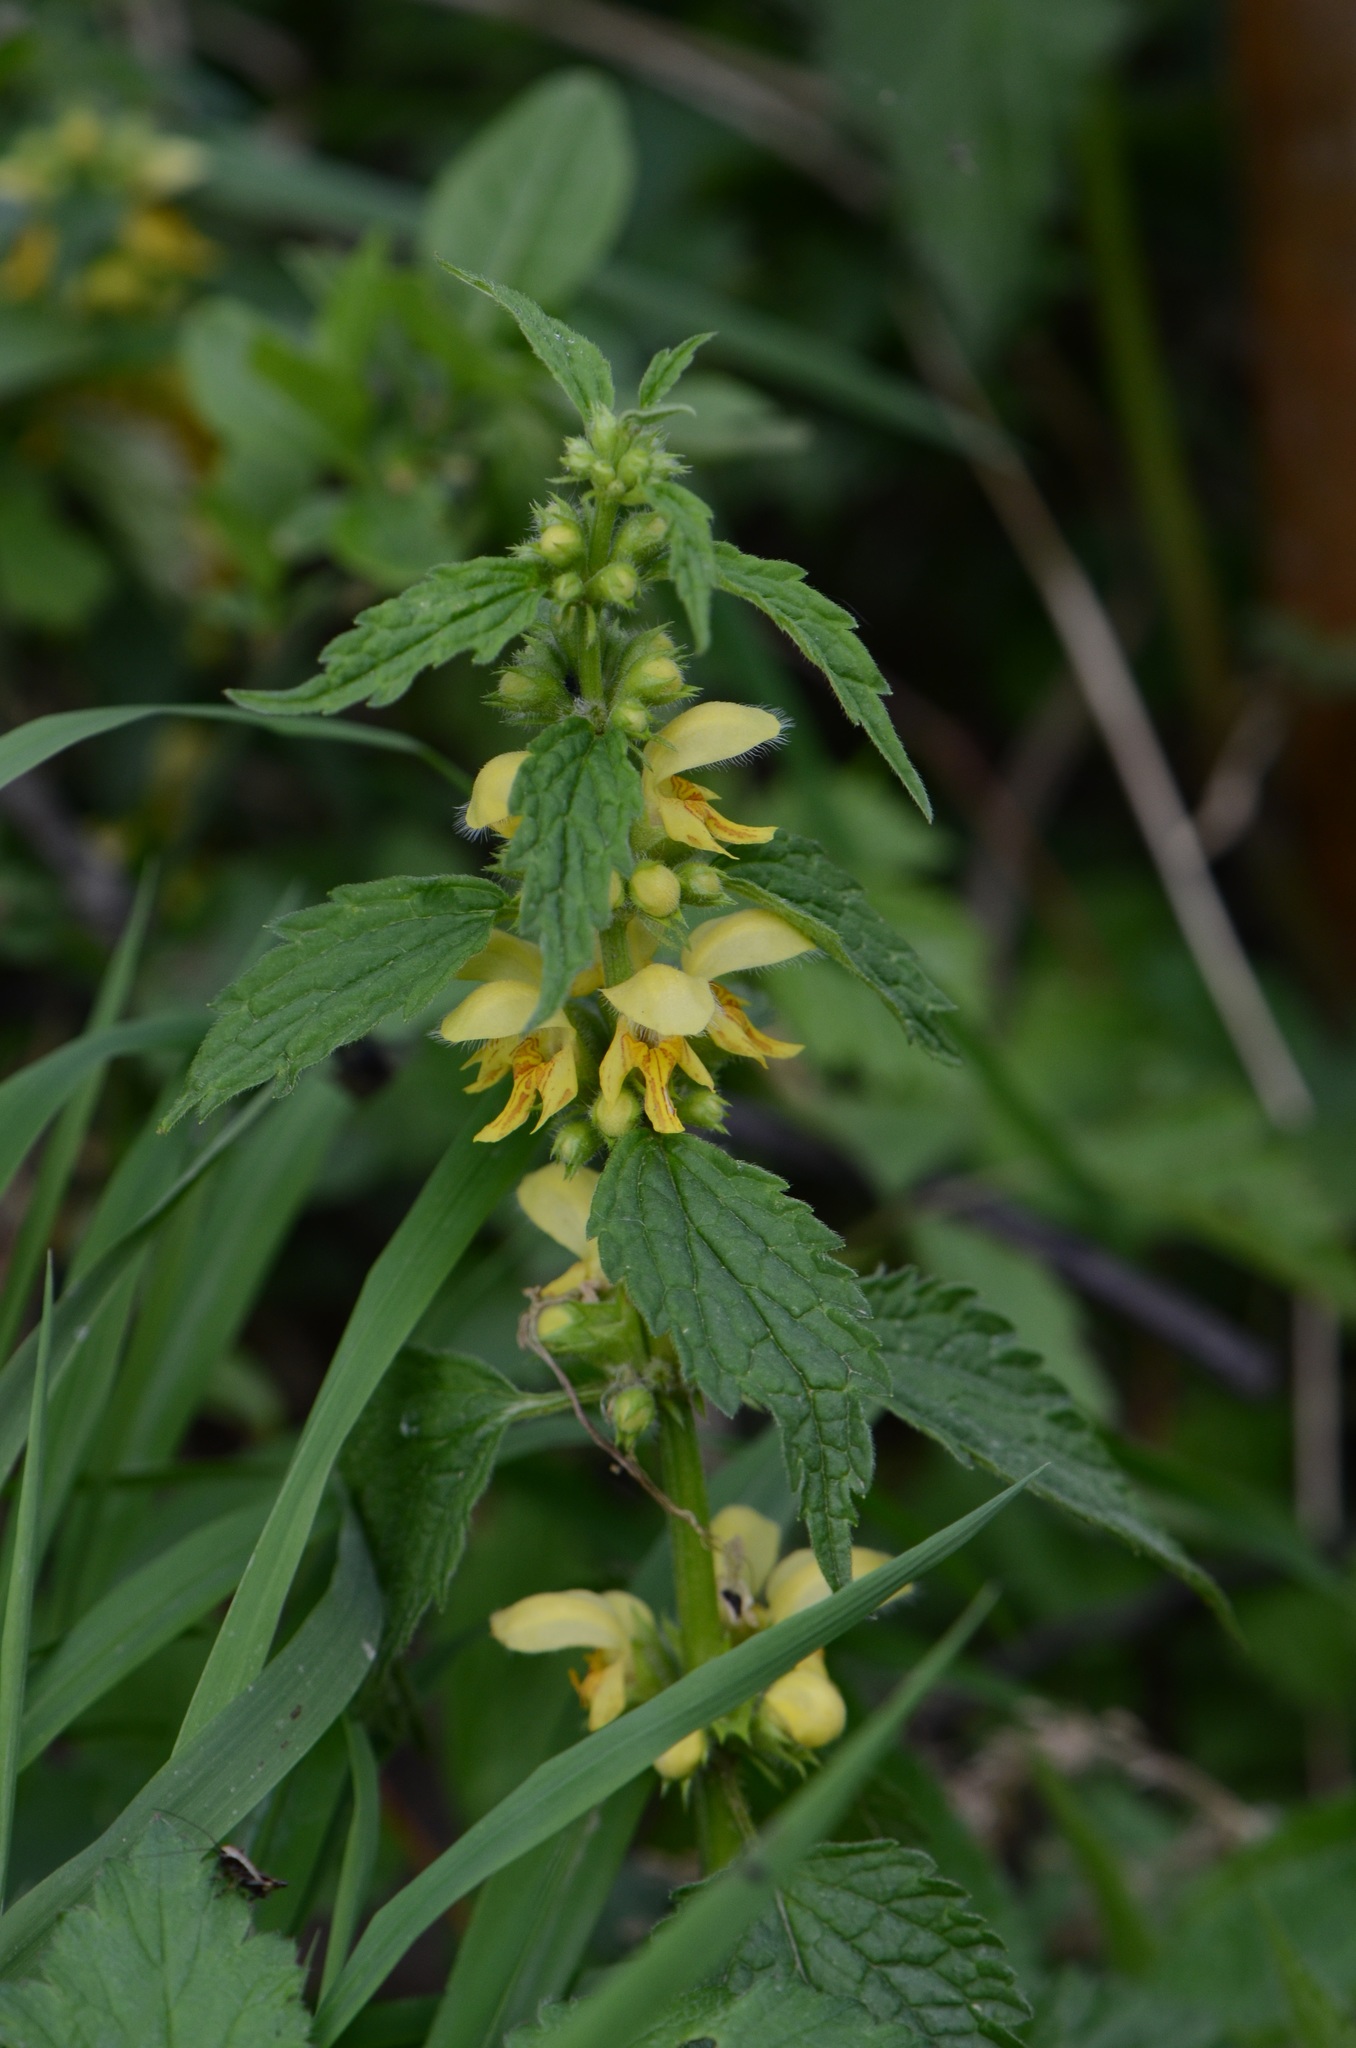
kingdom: Plantae
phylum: Tracheophyta
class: Magnoliopsida
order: Lamiales
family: Lamiaceae
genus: Lamium
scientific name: Lamium galeobdolon
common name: Yellow archangel
